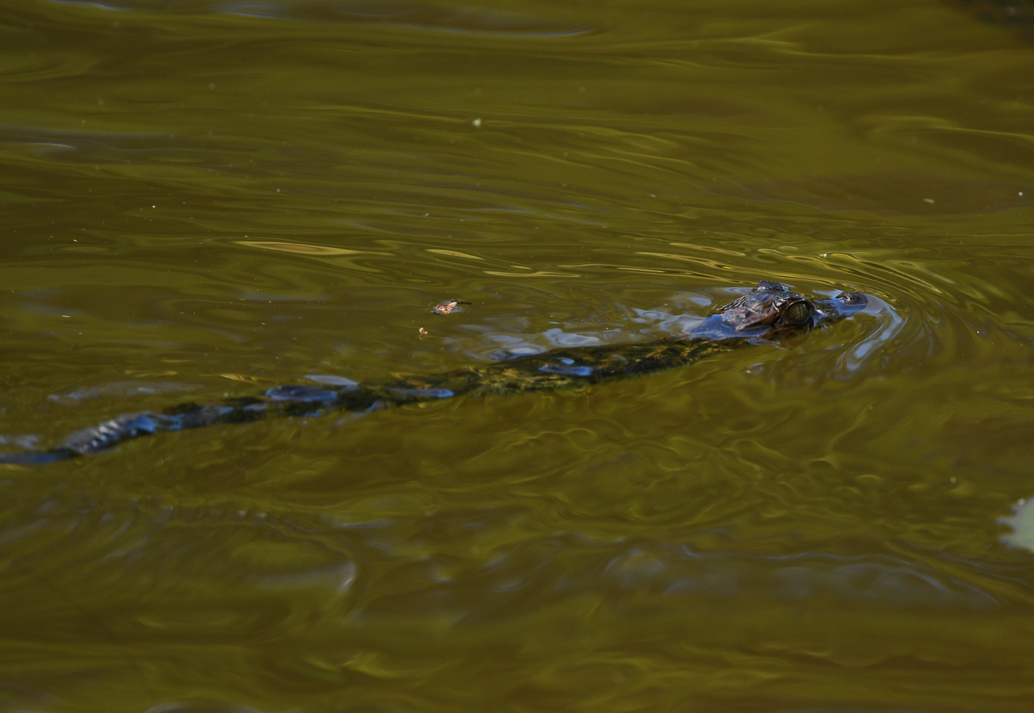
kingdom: Animalia
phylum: Chordata
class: Crocodylia
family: Alligatoridae
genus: Caiman
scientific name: Caiman crocodilus
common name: Common caiman
